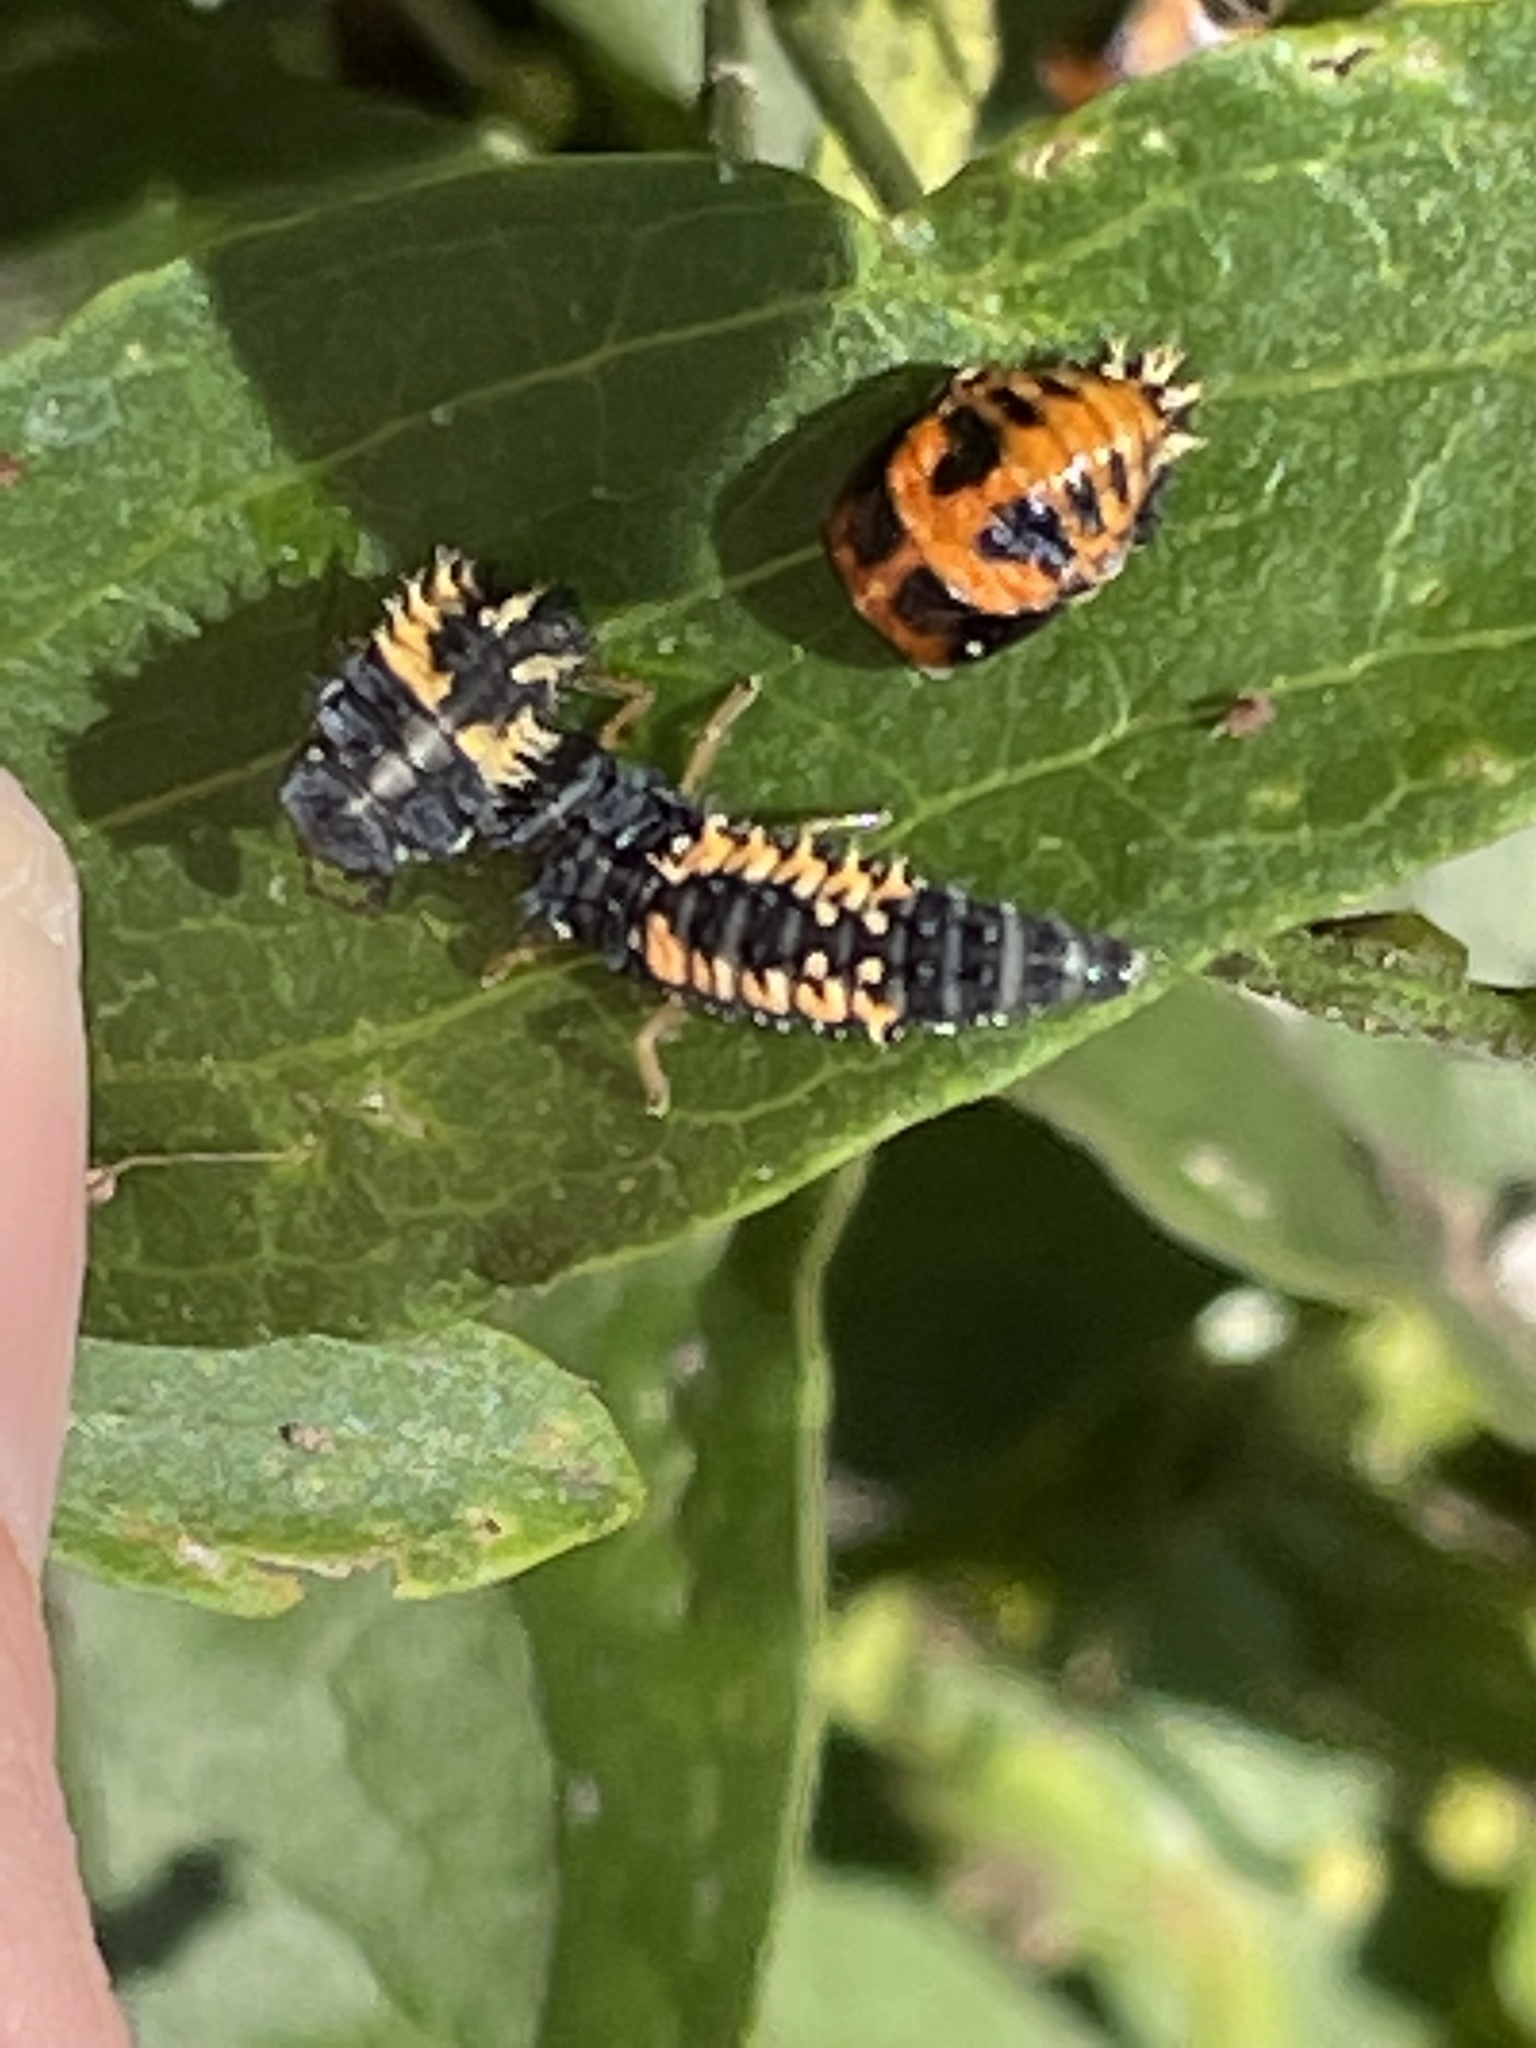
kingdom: Animalia
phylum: Arthropoda
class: Insecta
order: Coleoptera
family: Coccinellidae
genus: Harmonia
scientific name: Harmonia axyridis
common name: Harlequin ladybird
